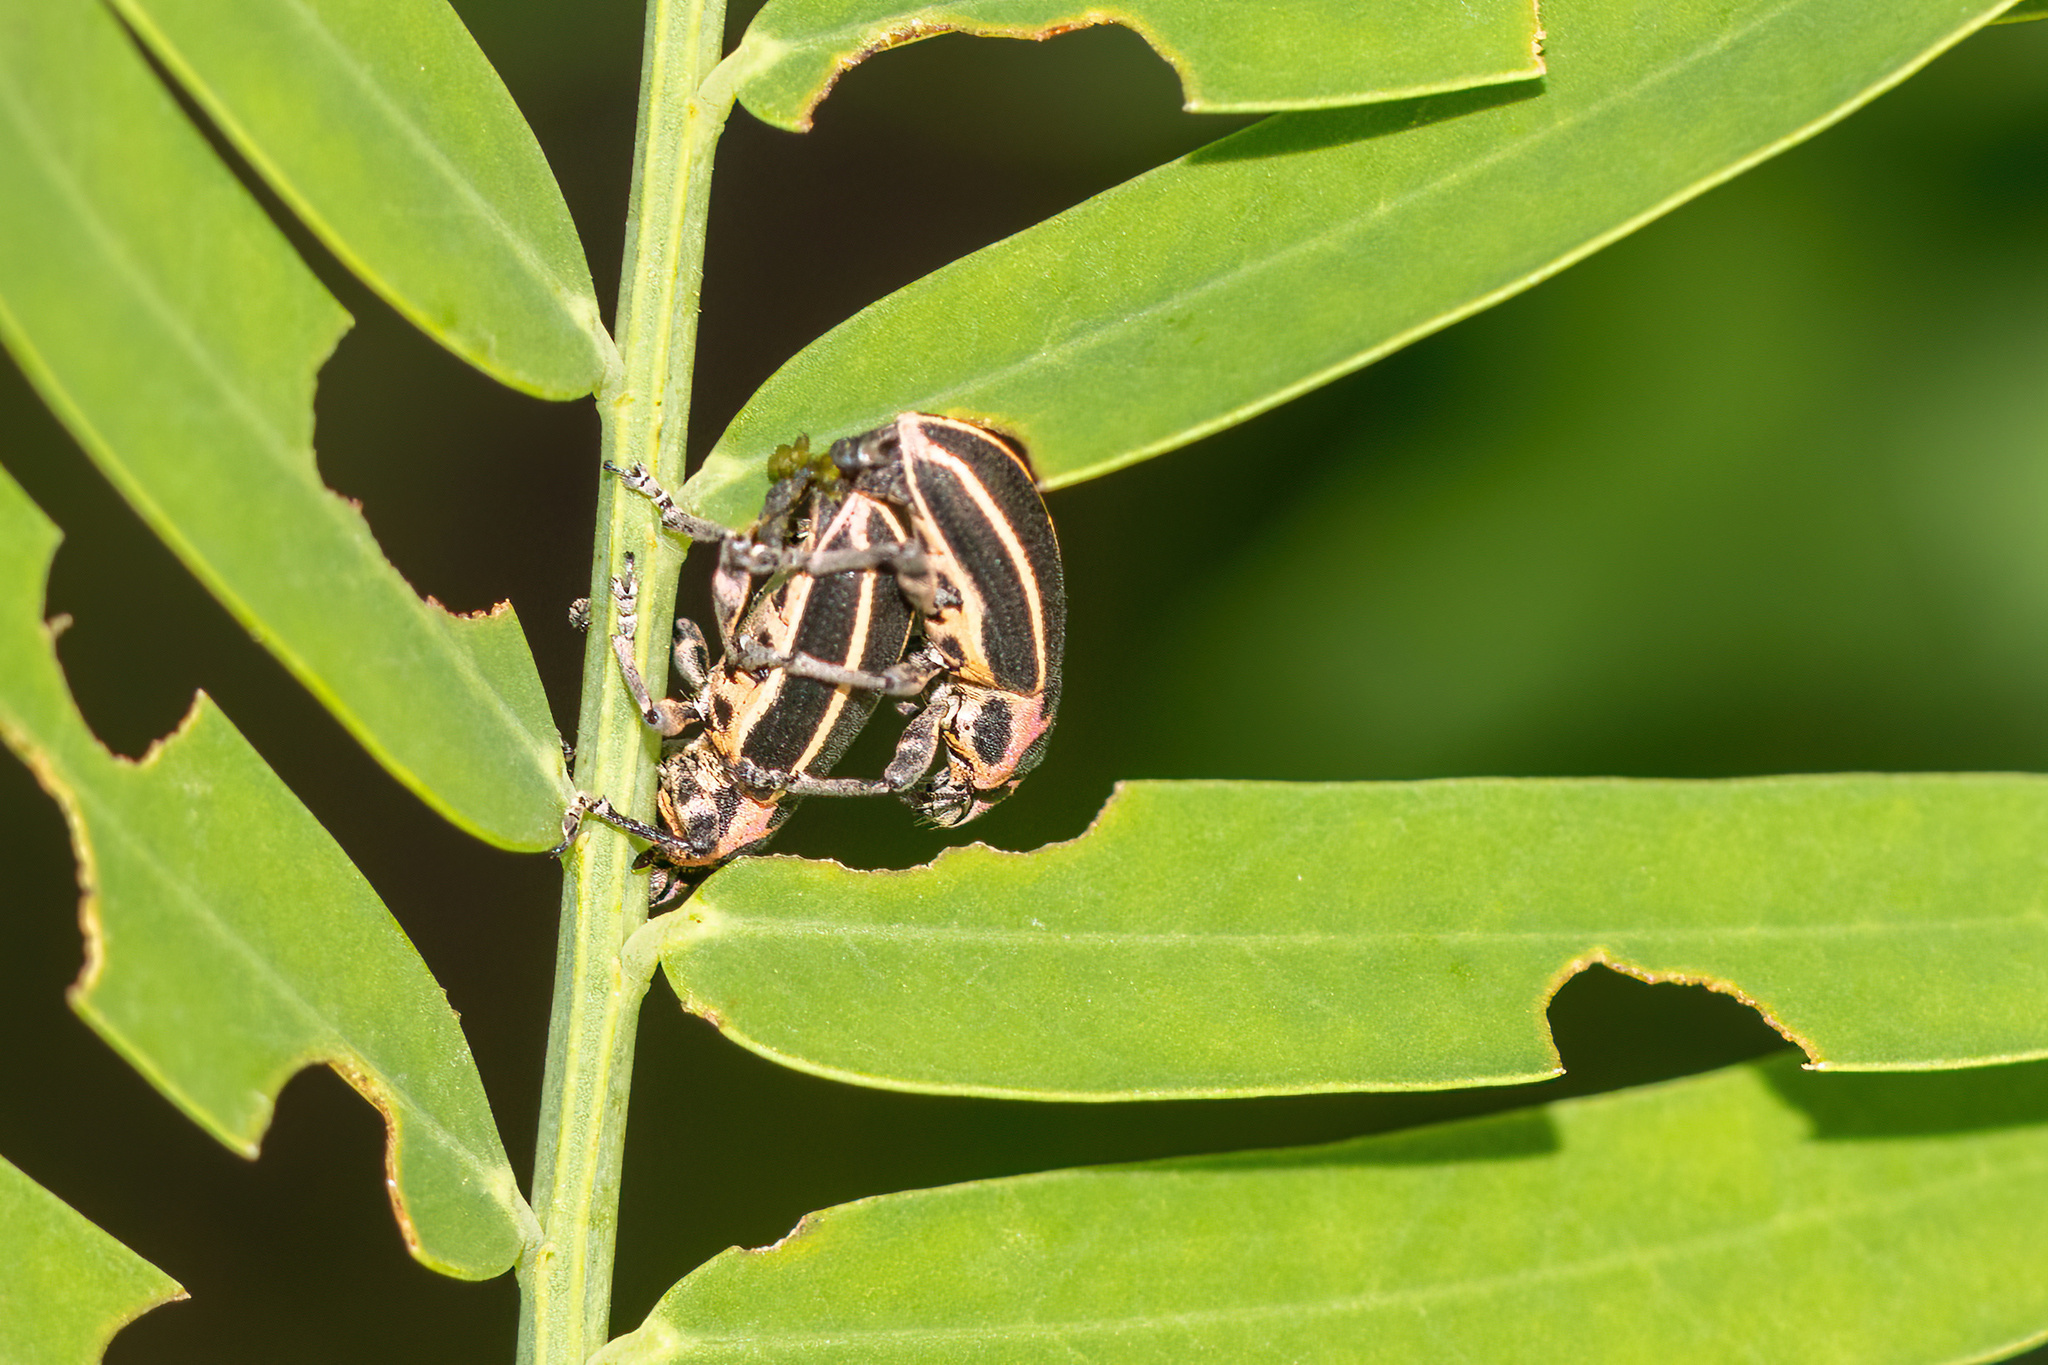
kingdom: Animalia
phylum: Arthropoda
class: Insecta
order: Coleoptera
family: Curculionidae
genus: Eudiagogus
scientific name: Eudiagogus maryae
